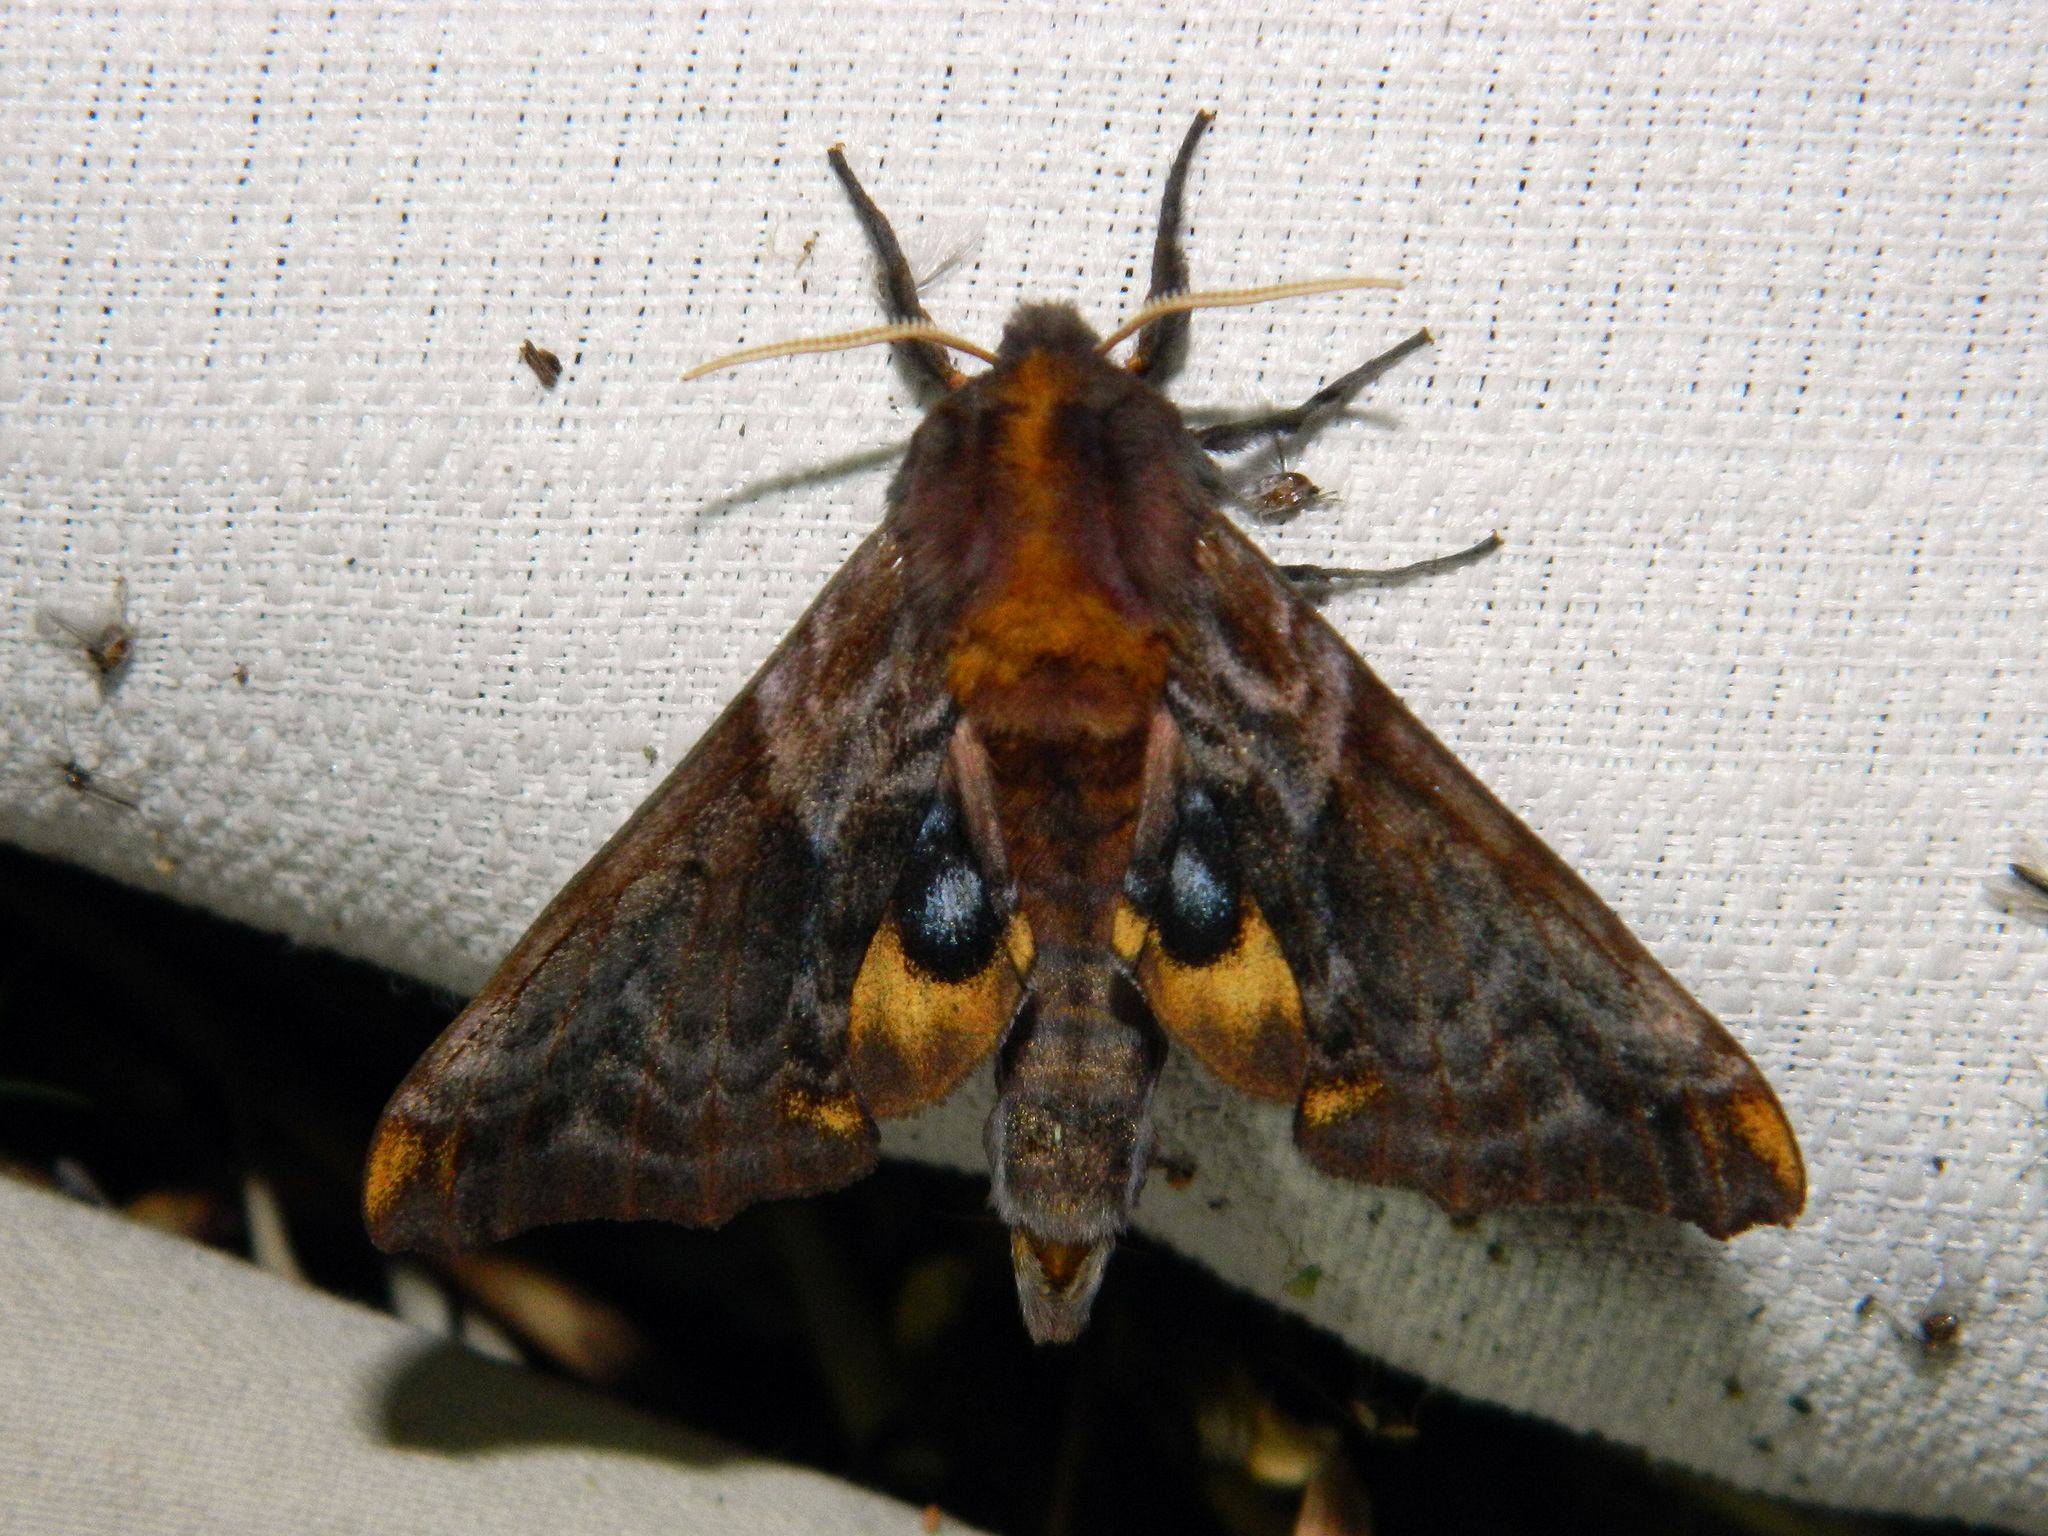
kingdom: Animalia
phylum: Arthropoda
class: Insecta
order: Lepidoptera
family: Sphingidae
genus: Paonias
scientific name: Paonias myops
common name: Small-eyed sphinx
